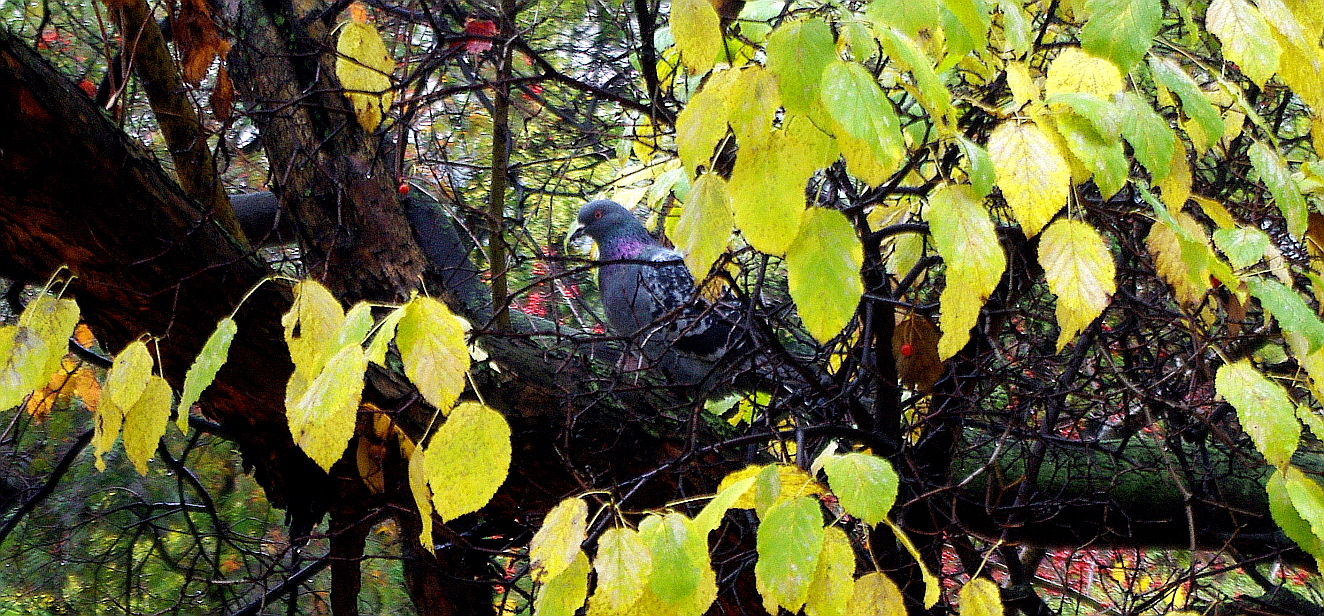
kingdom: Animalia
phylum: Chordata
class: Aves
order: Columbiformes
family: Columbidae
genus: Columba
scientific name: Columba livia
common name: Rock pigeon
